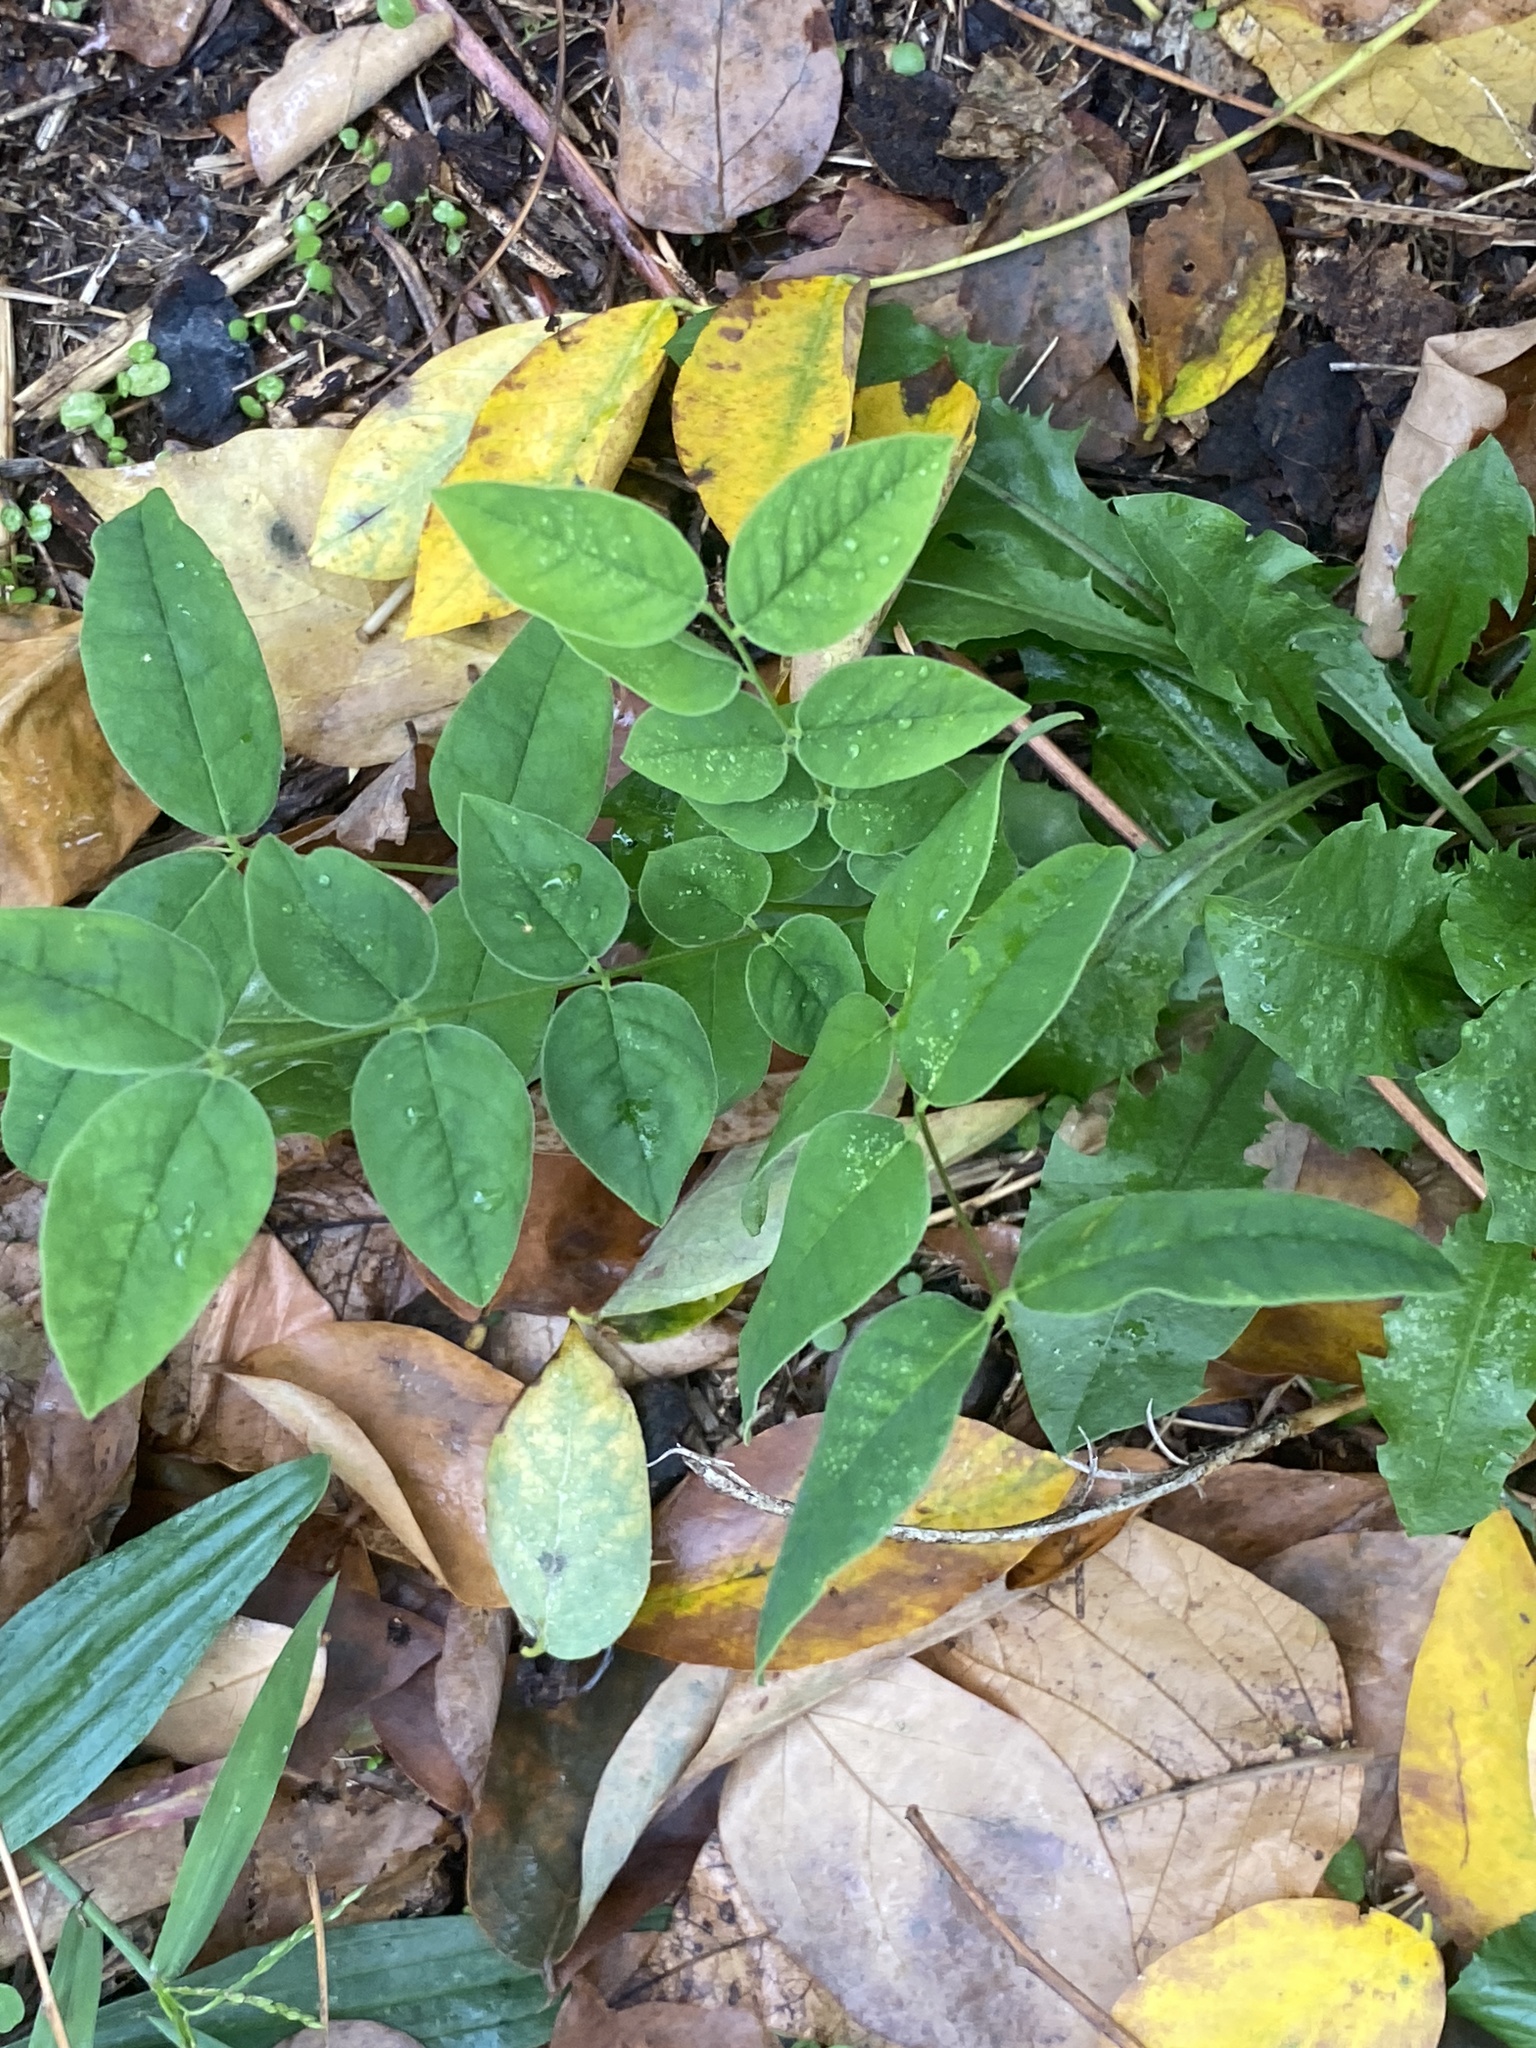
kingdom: Plantae
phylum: Tracheophyta
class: Magnoliopsida
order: Fabales
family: Fabaceae
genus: Gymnocladus
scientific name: Gymnocladus dioicus
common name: Kentucky coffee-tree
